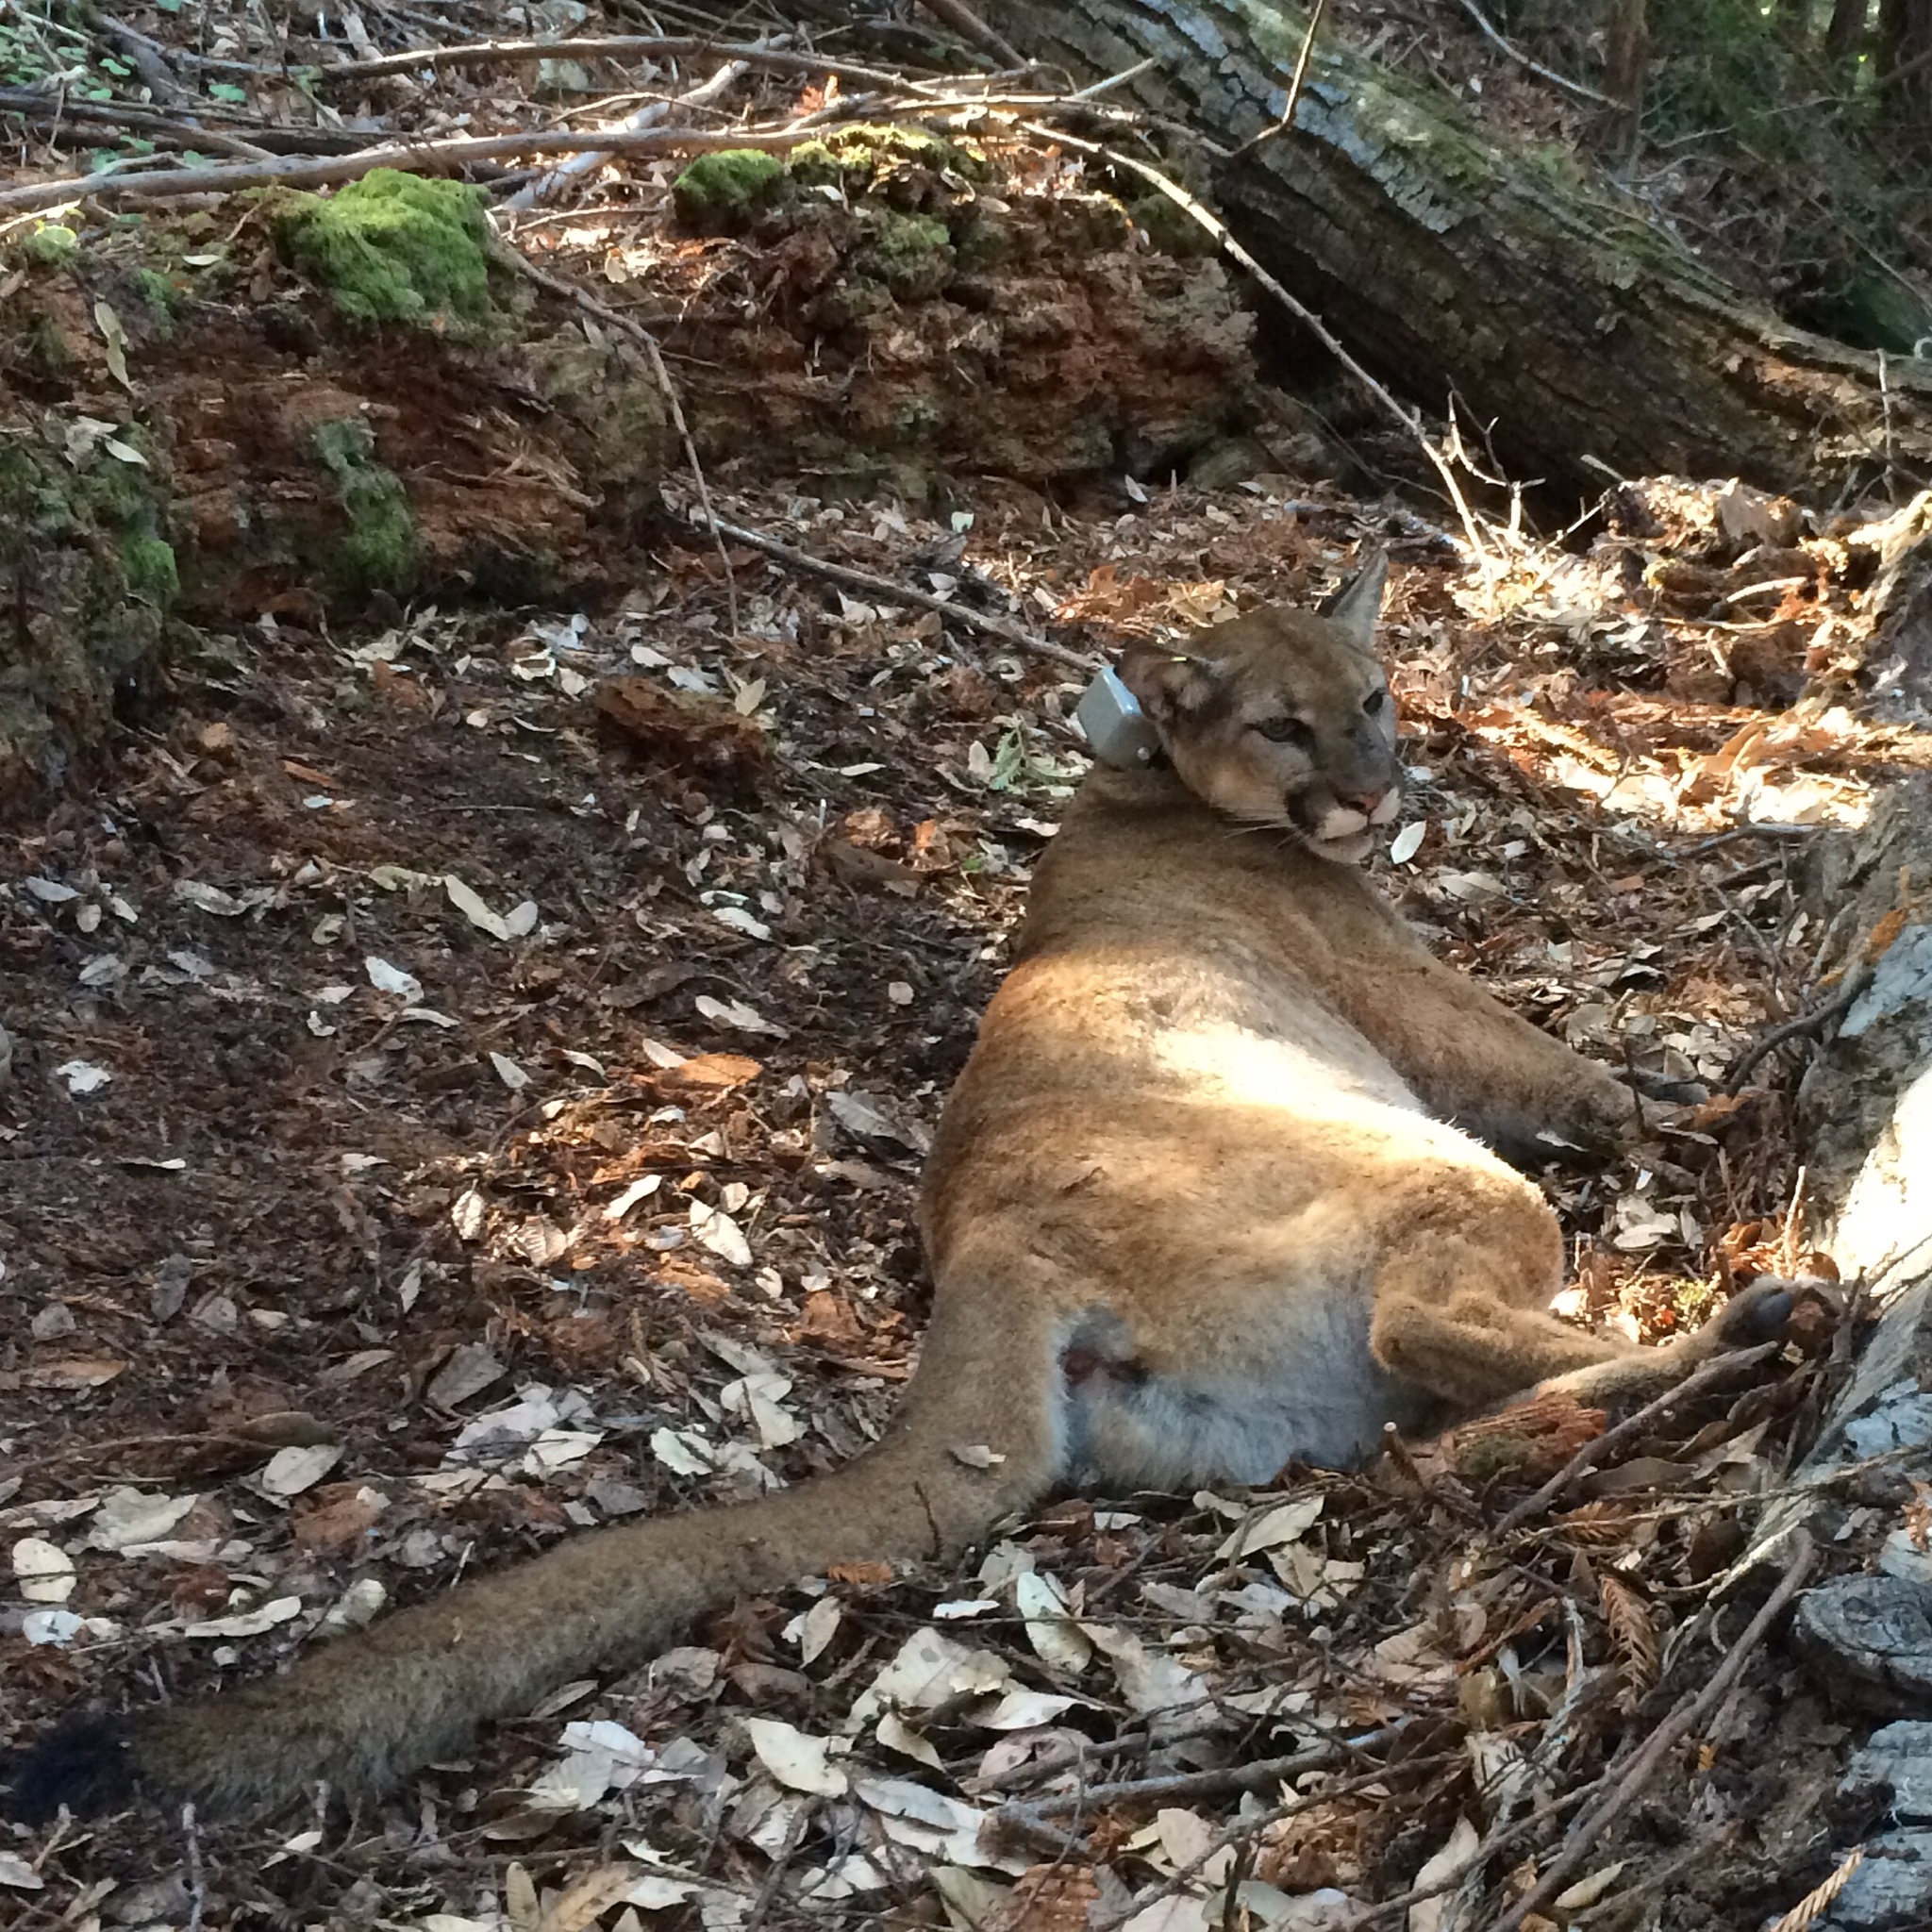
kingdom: Animalia
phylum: Chordata
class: Mammalia
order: Carnivora
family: Felidae
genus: Puma
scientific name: Puma concolor
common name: Puma
